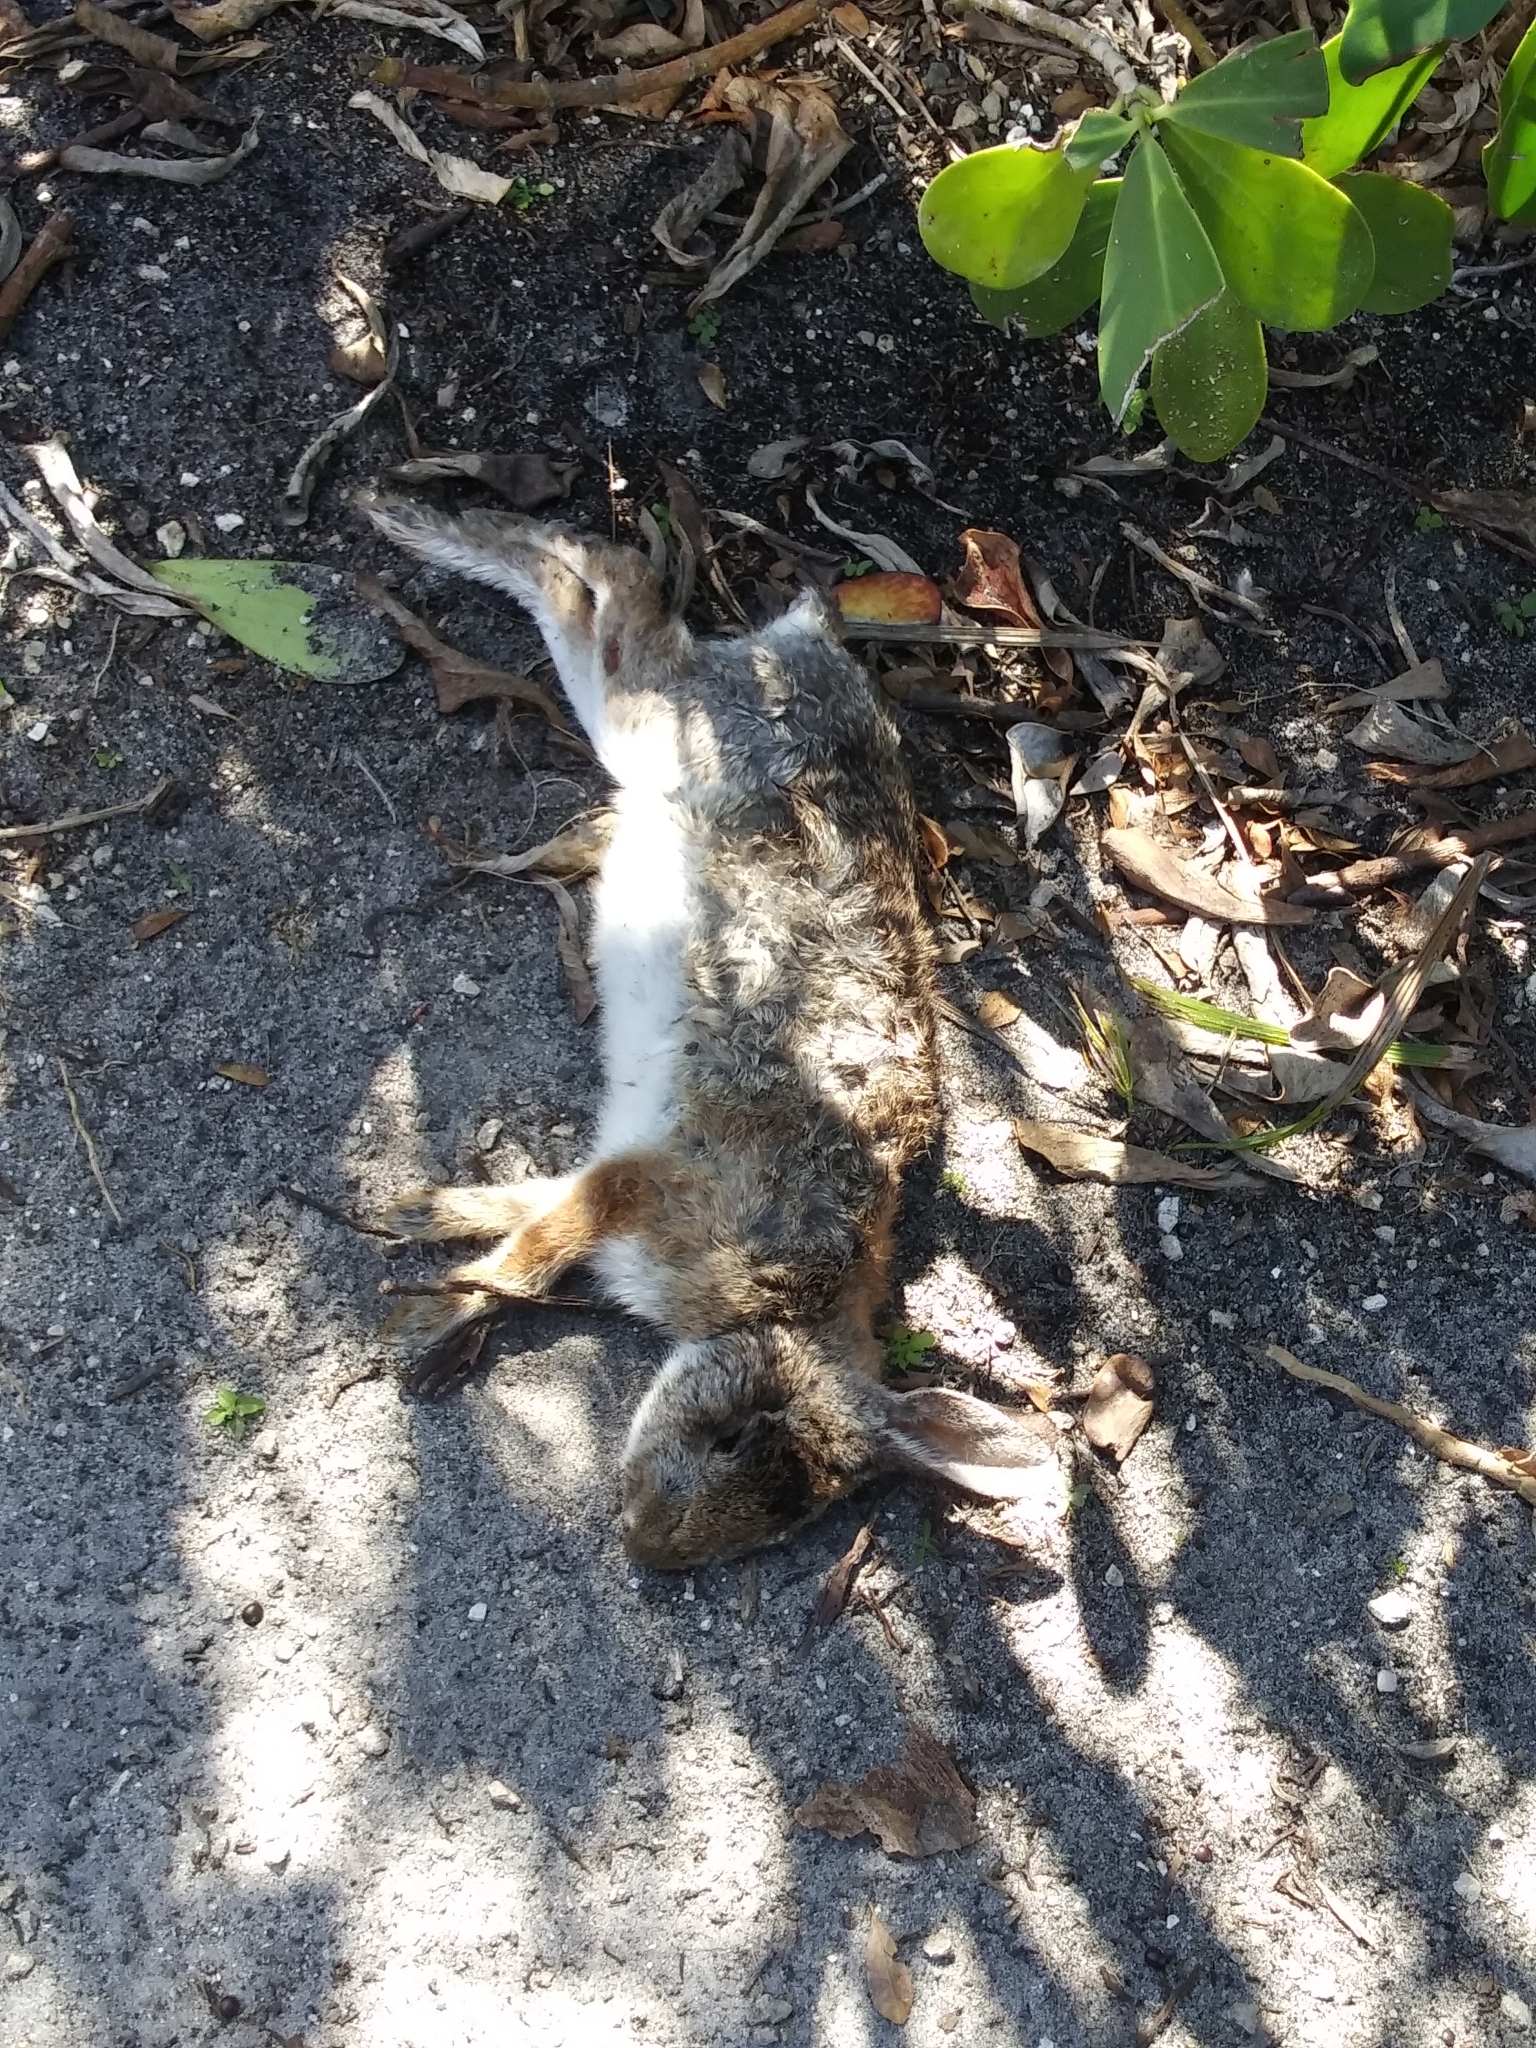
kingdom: Animalia
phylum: Chordata
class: Mammalia
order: Lagomorpha
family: Leporidae
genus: Sylvilagus
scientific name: Sylvilagus floridanus
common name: Eastern cottontail
